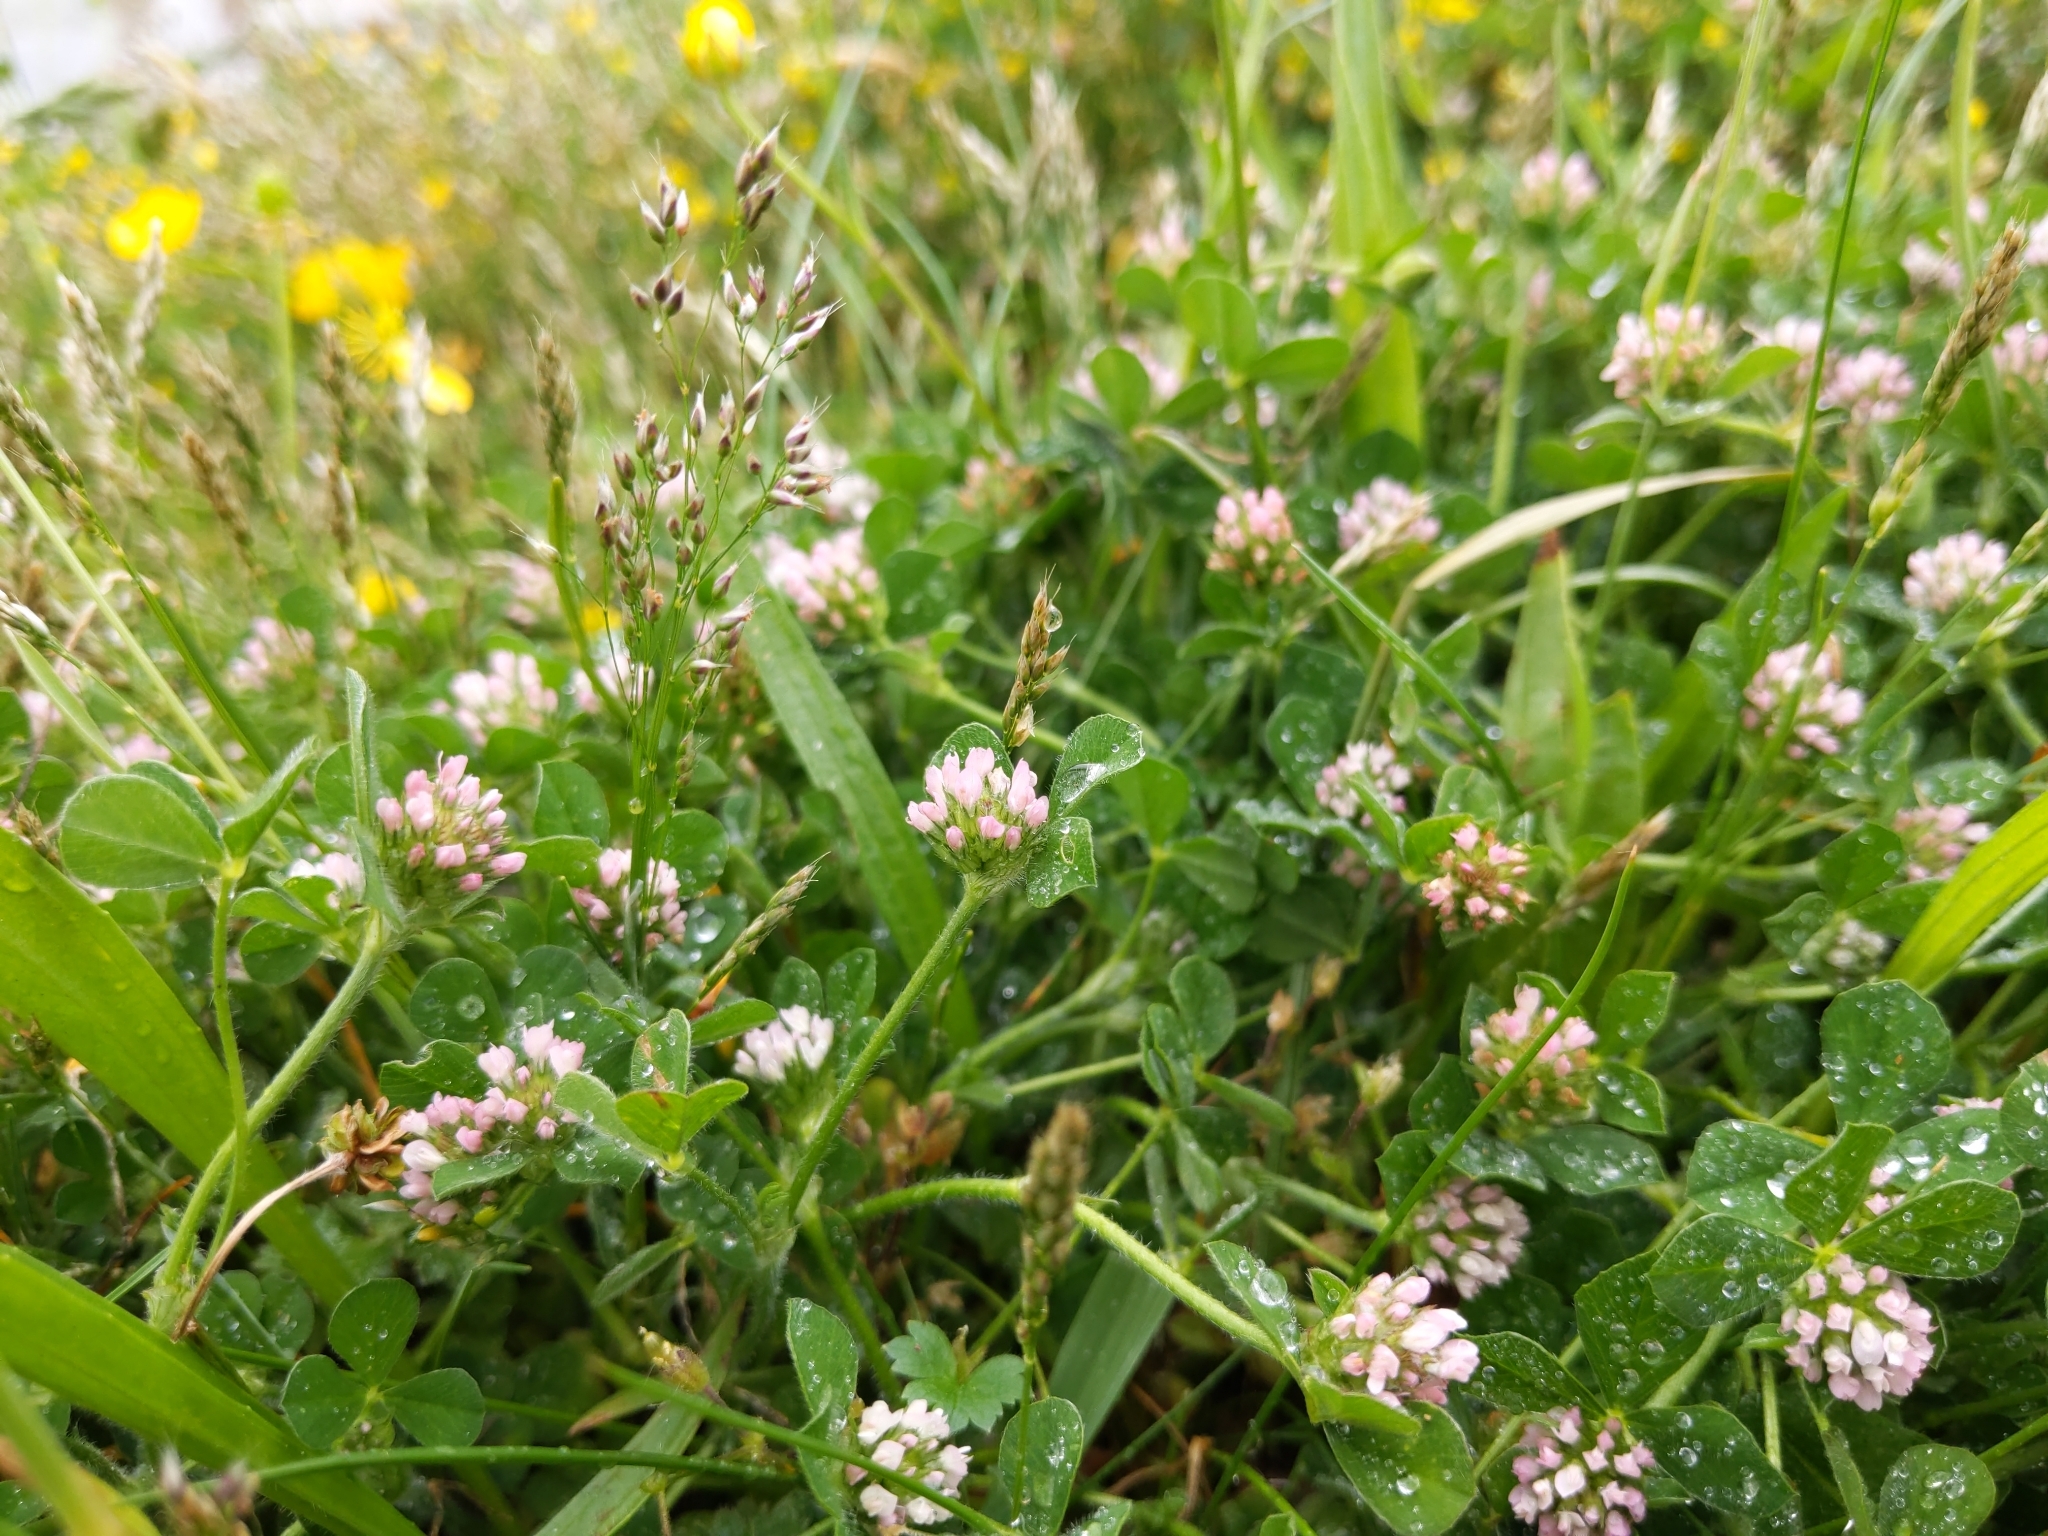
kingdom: Plantae
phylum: Tracheophyta
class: Magnoliopsida
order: Fabales
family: Fabaceae
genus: Trifolium
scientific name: Trifolium striatum
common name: Knotted clover
